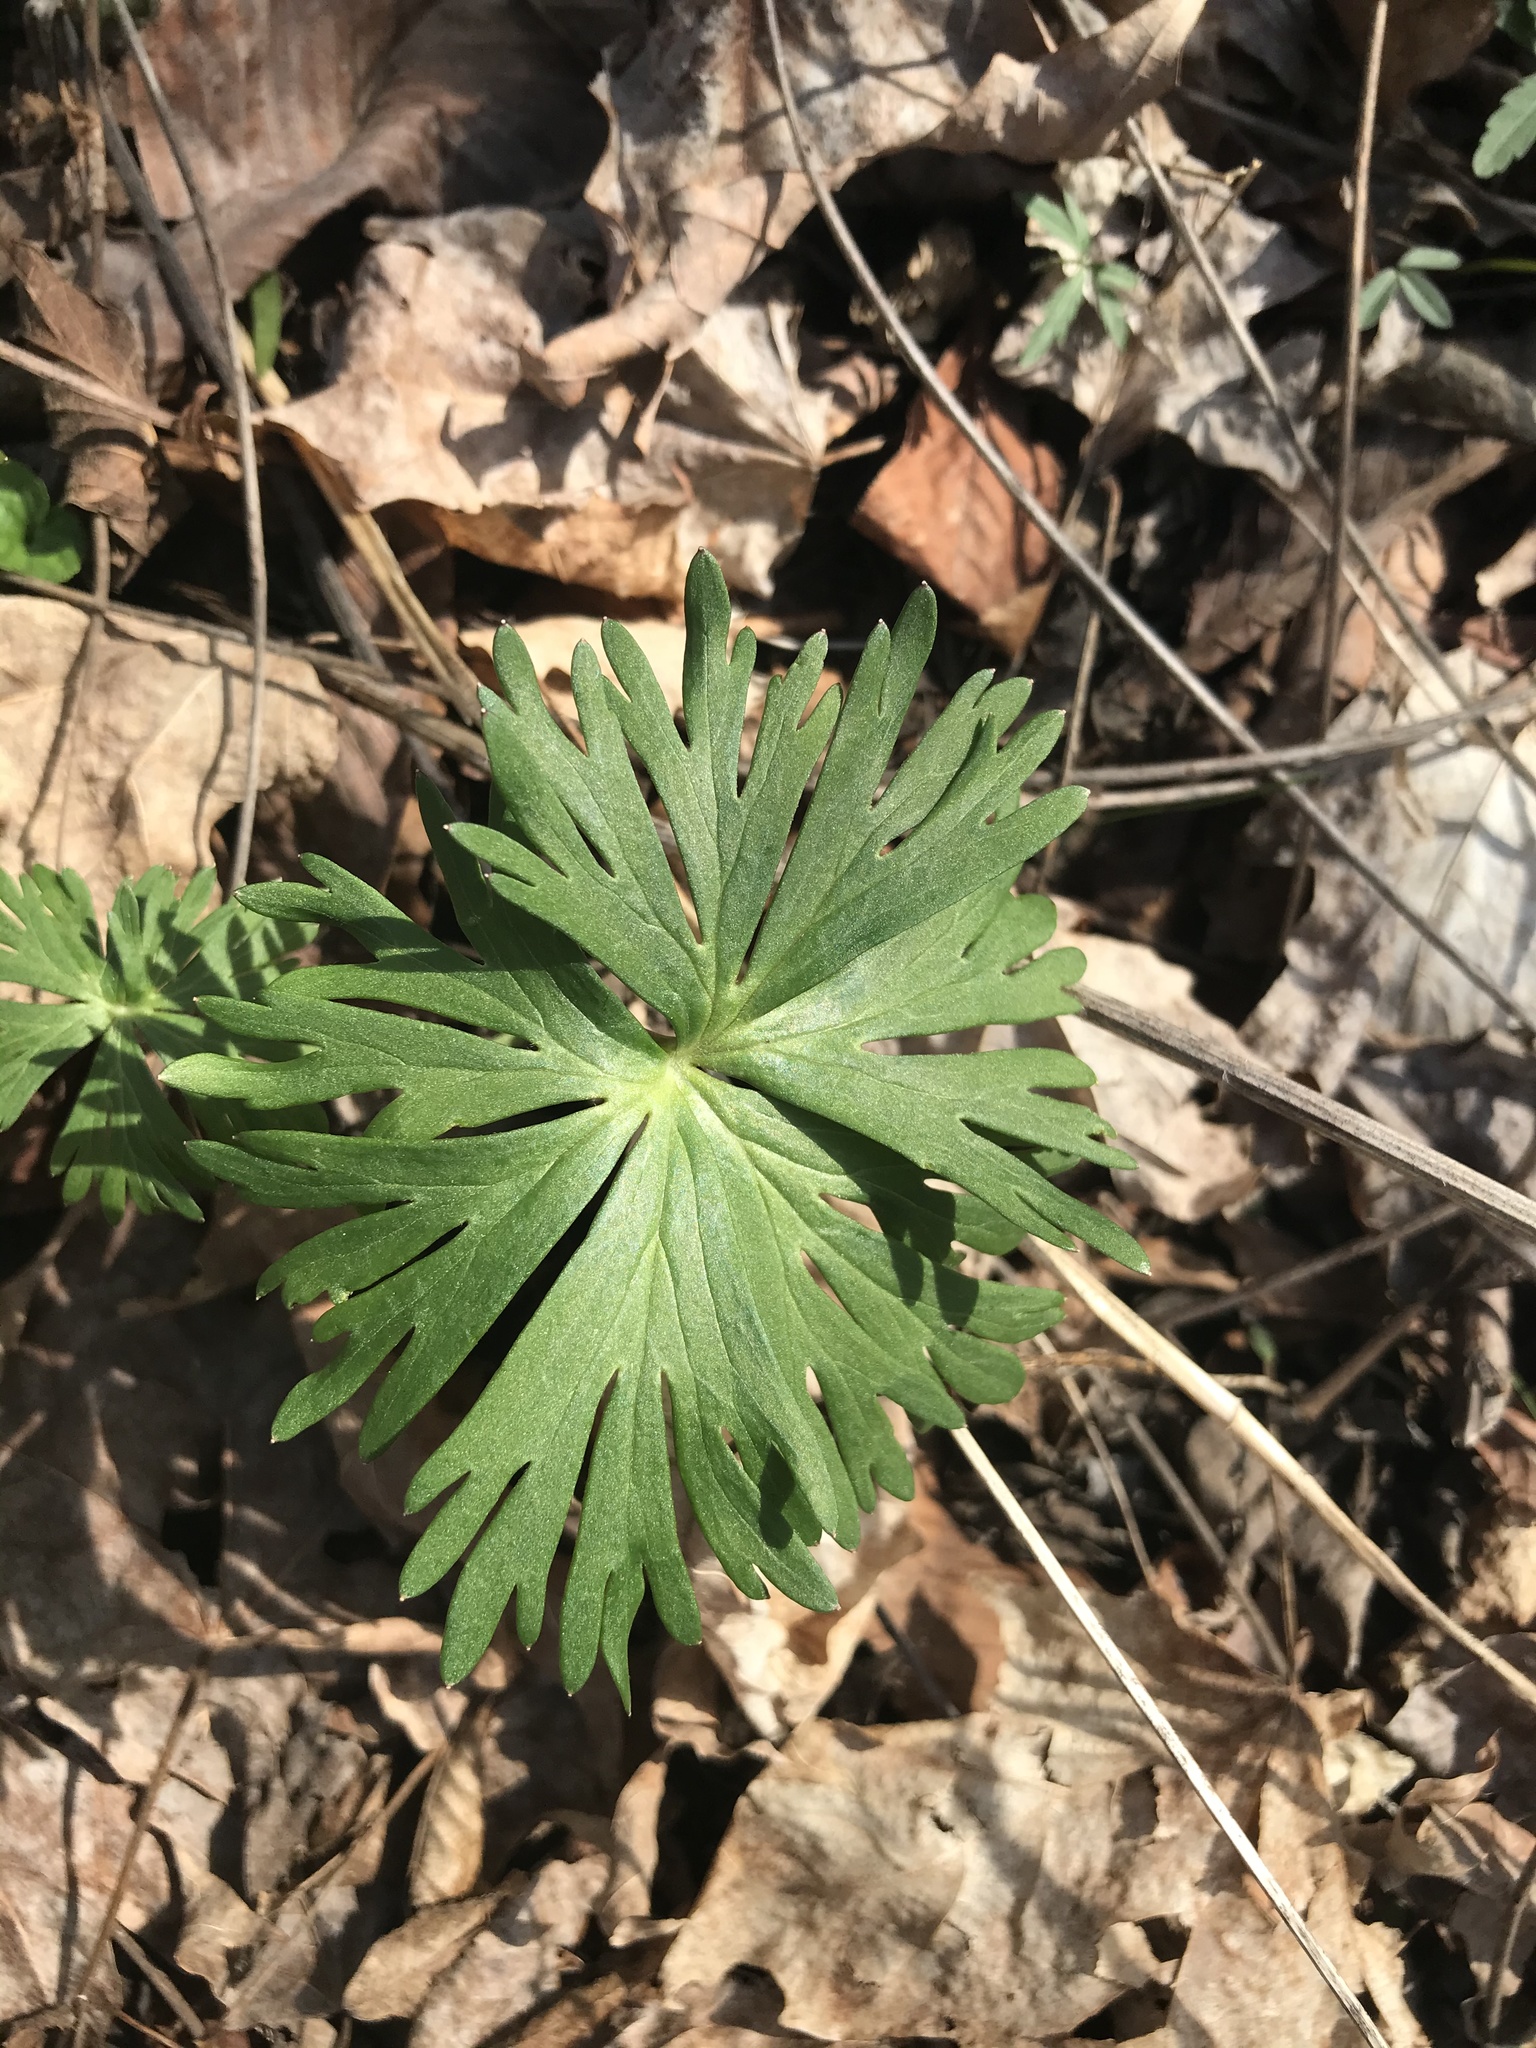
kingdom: Plantae
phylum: Tracheophyta
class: Magnoliopsida
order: Ranunculales
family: Ranunculaceae
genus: Delphinium
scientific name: Delphinium tricorne
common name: Dwarf larkspur
